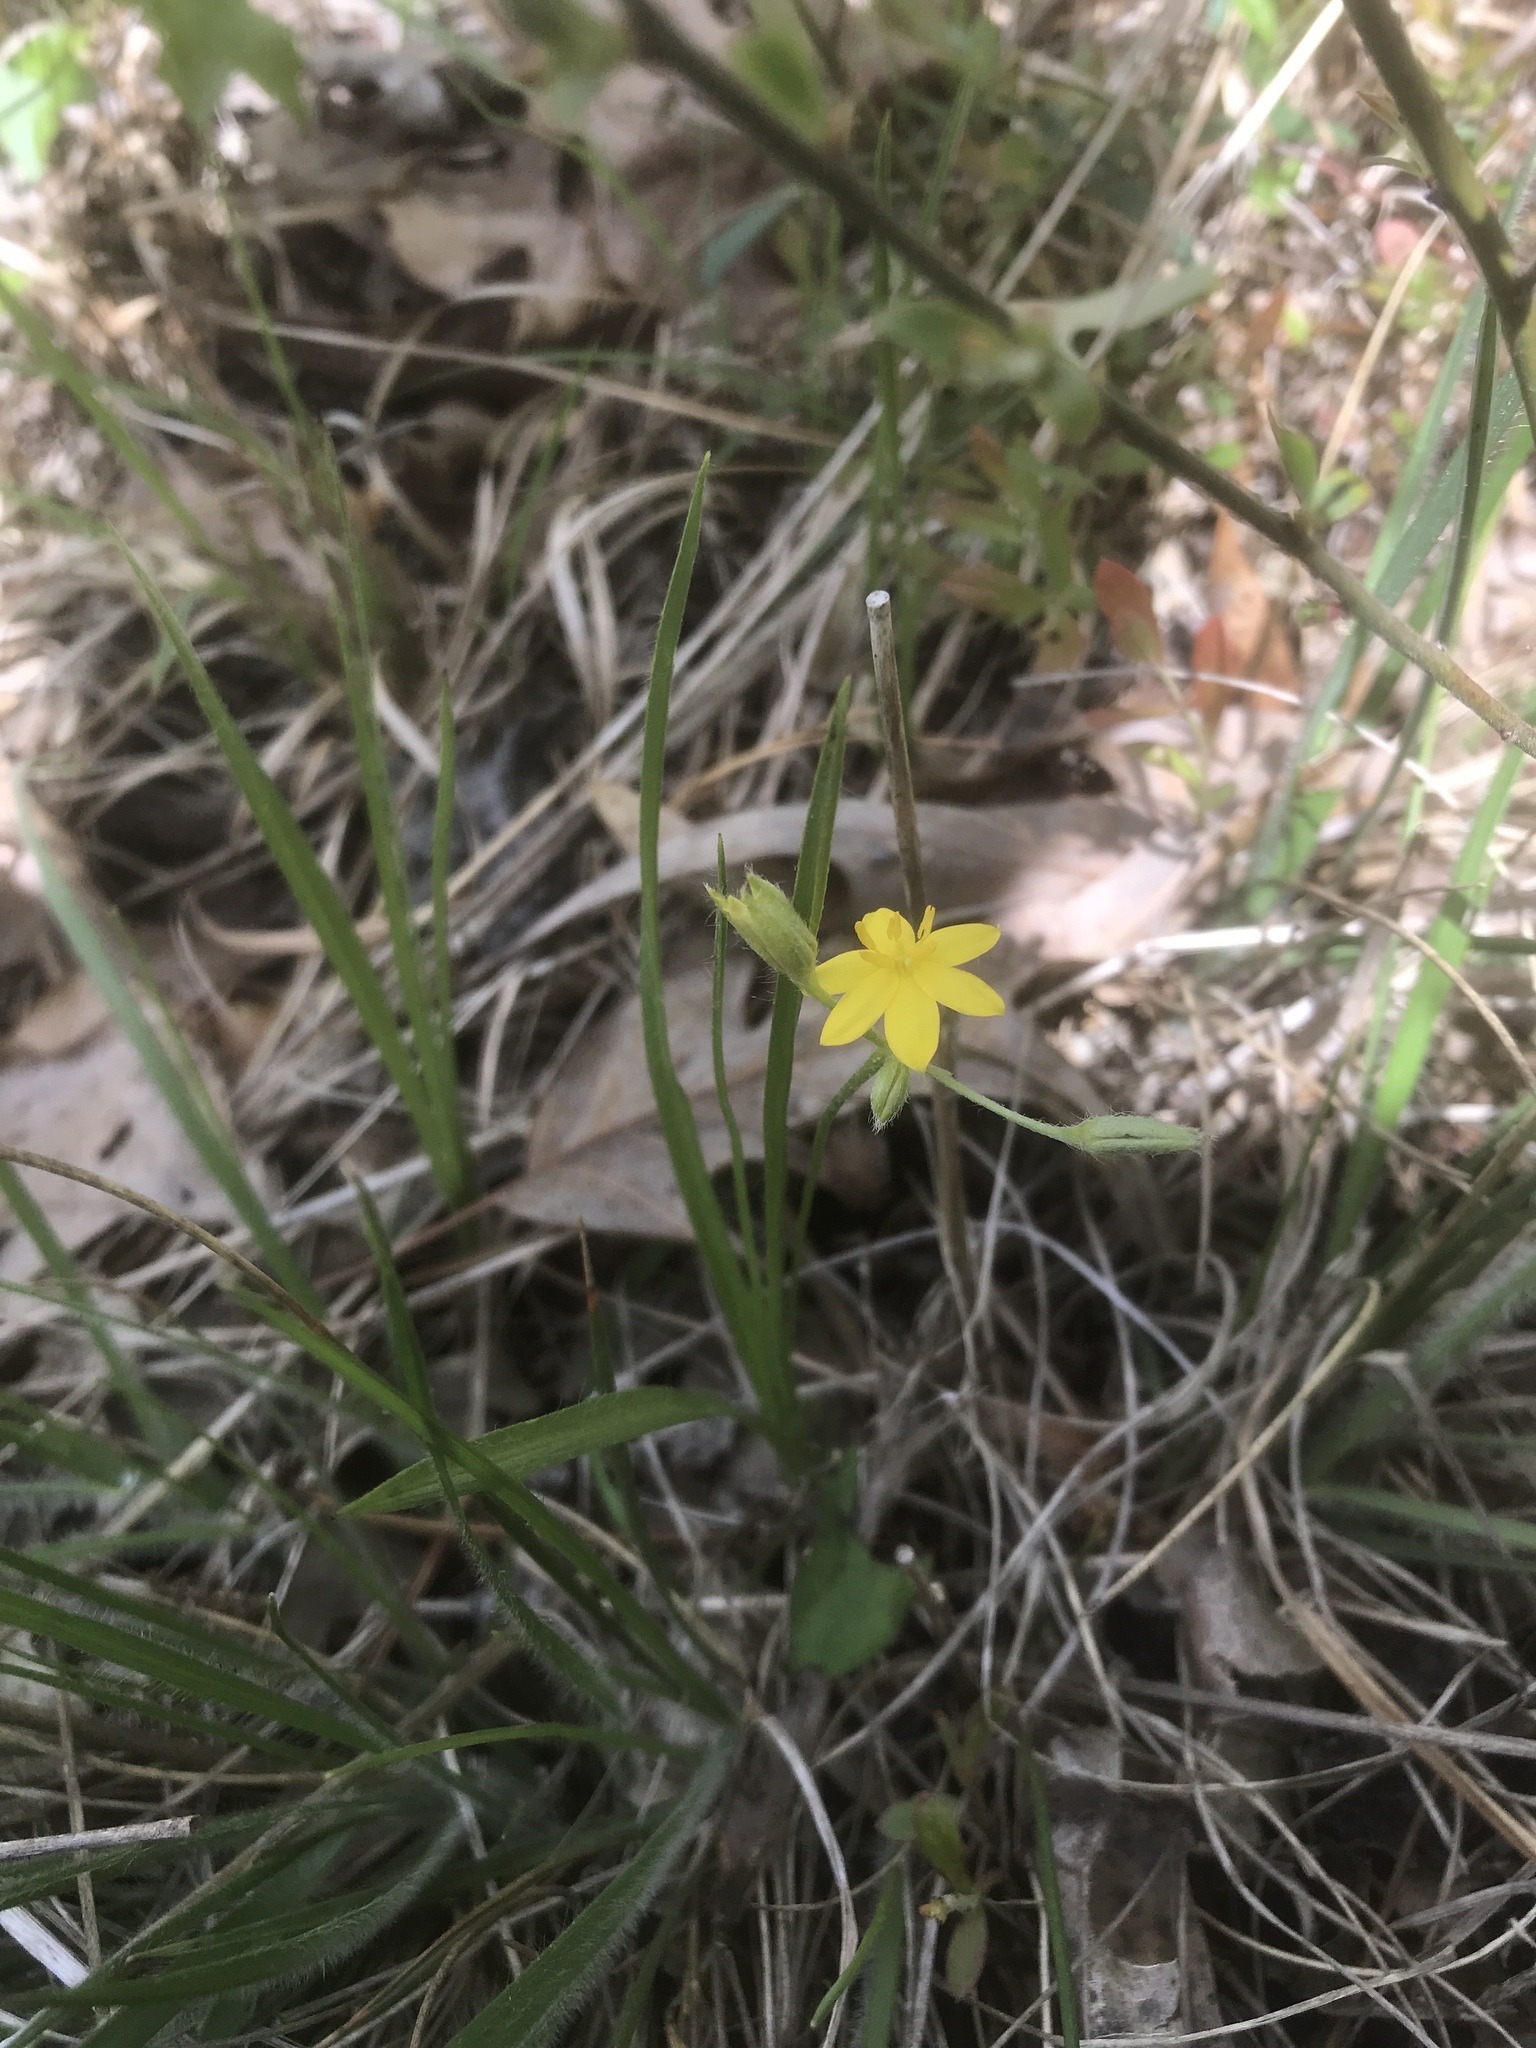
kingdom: Plantae
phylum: Tracheophyta
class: Liliopsida
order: Asparagales
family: Hypoxidaceae
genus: Hypoxis
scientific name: Hypoxis hirsuta
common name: Common goldstar
